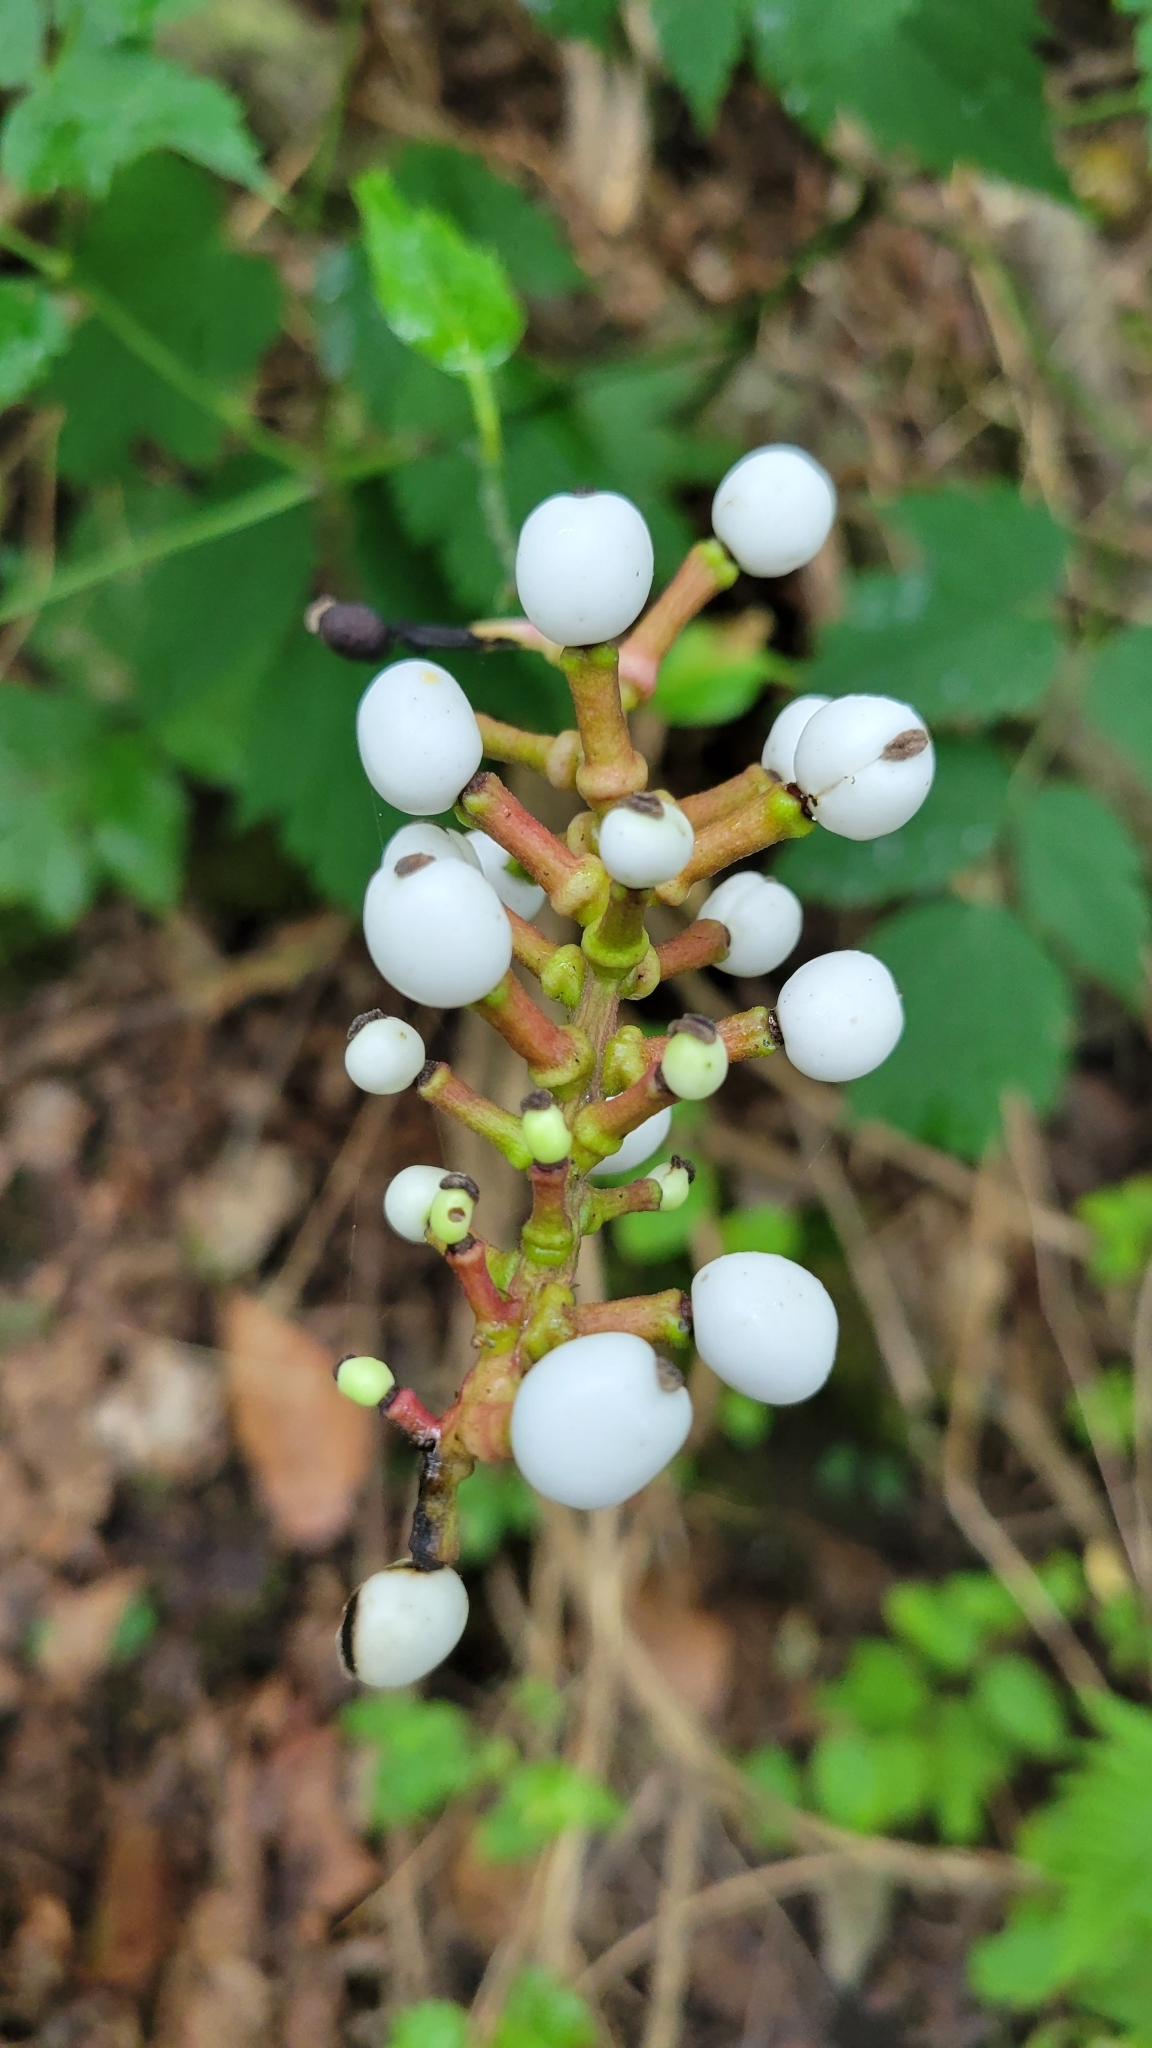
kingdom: Plantae
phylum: Tracheophyta
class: Magnoliopsida
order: Ranunculales
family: Ranunculaceae
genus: Actaea
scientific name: Actaea pachypoda
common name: Doll's-eyes
